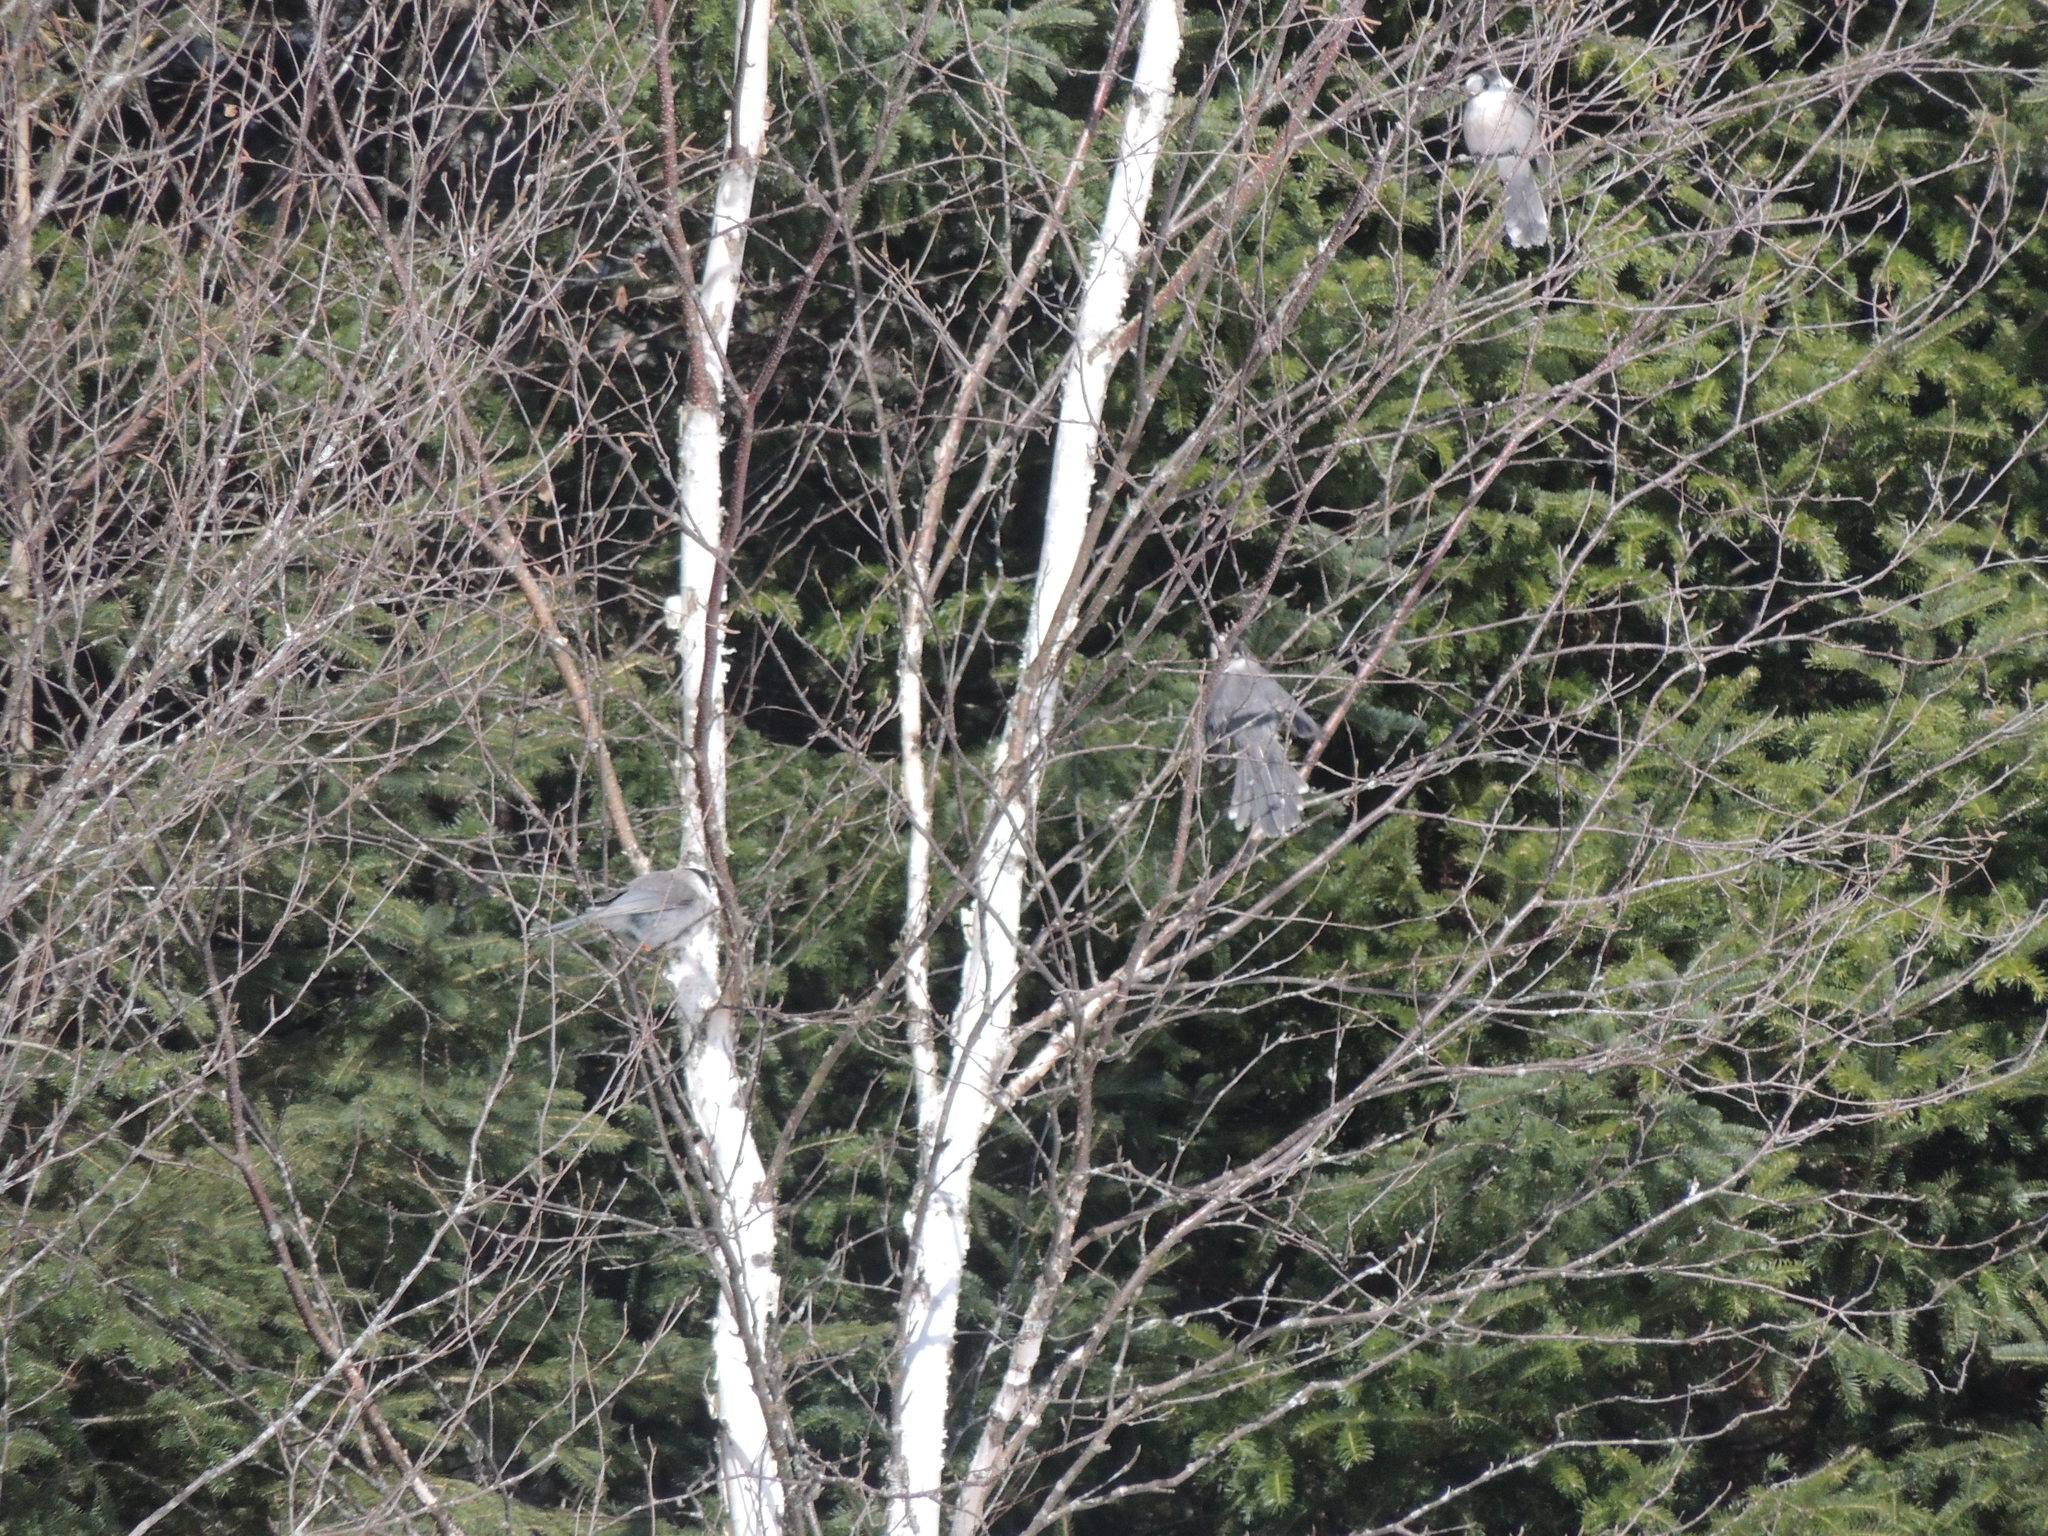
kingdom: Animalia
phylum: Chordata
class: Aves
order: Passeriformes
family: Corvidae
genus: Perisoreus
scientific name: Perisoreus canadensis
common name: Gray jay
